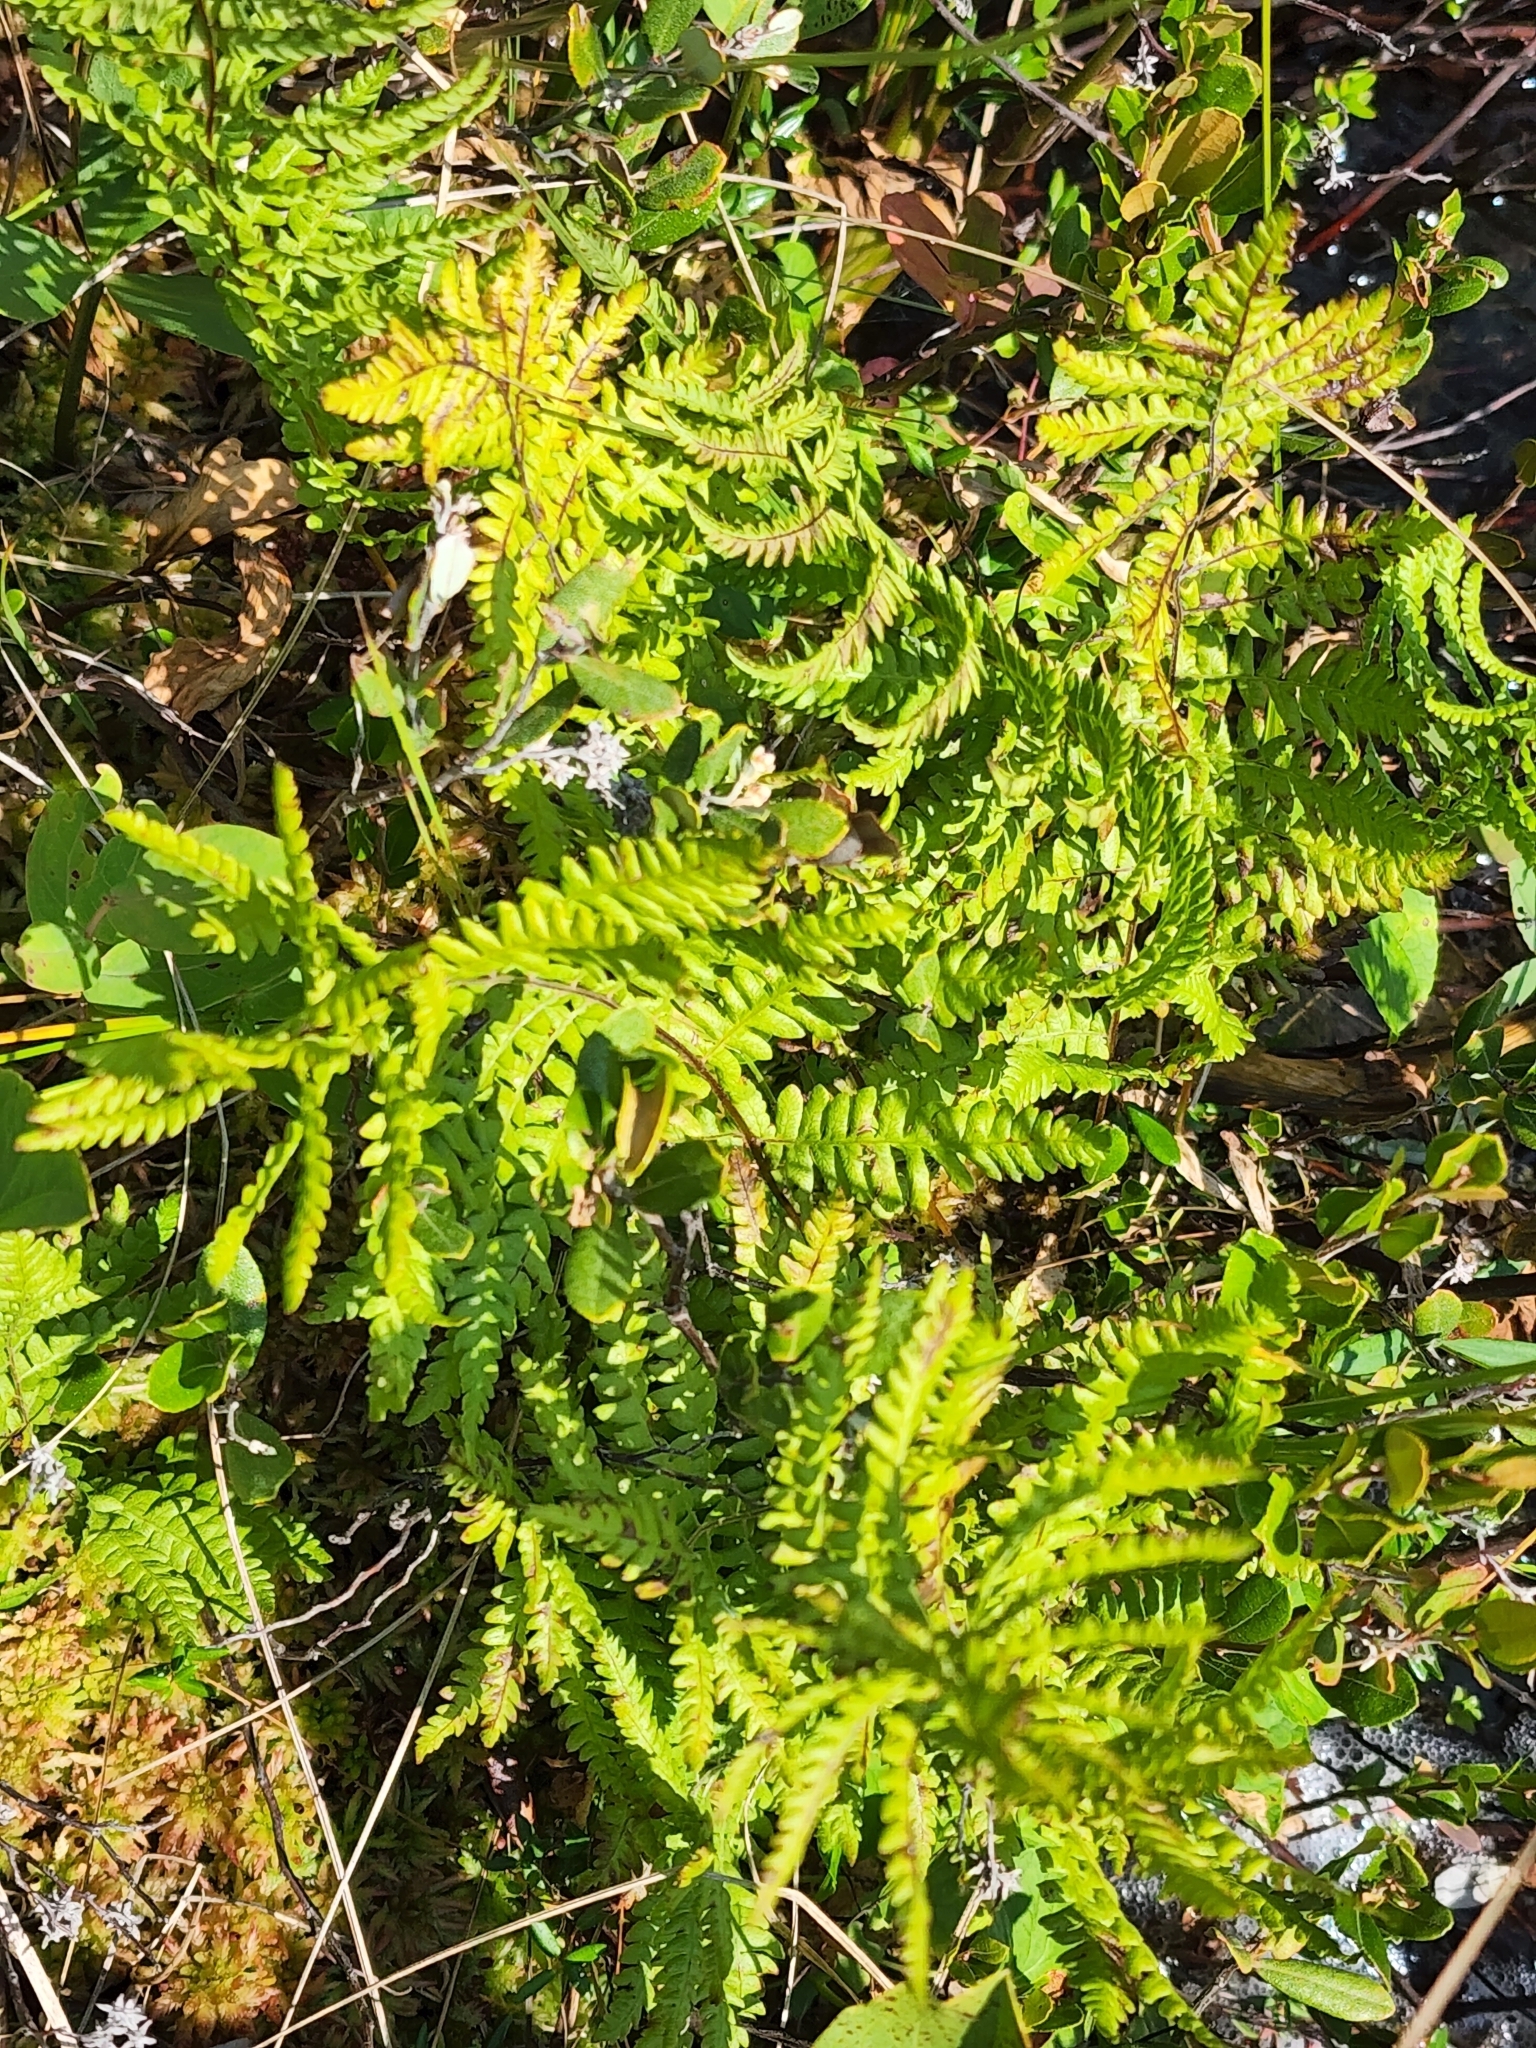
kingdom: Plantae
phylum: Tracheophyta
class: Polypodiopsida
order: Polypodiales
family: Thelypteridaceae
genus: Thelypteris
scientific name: Thelypteris palustris
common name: Marsh fern
